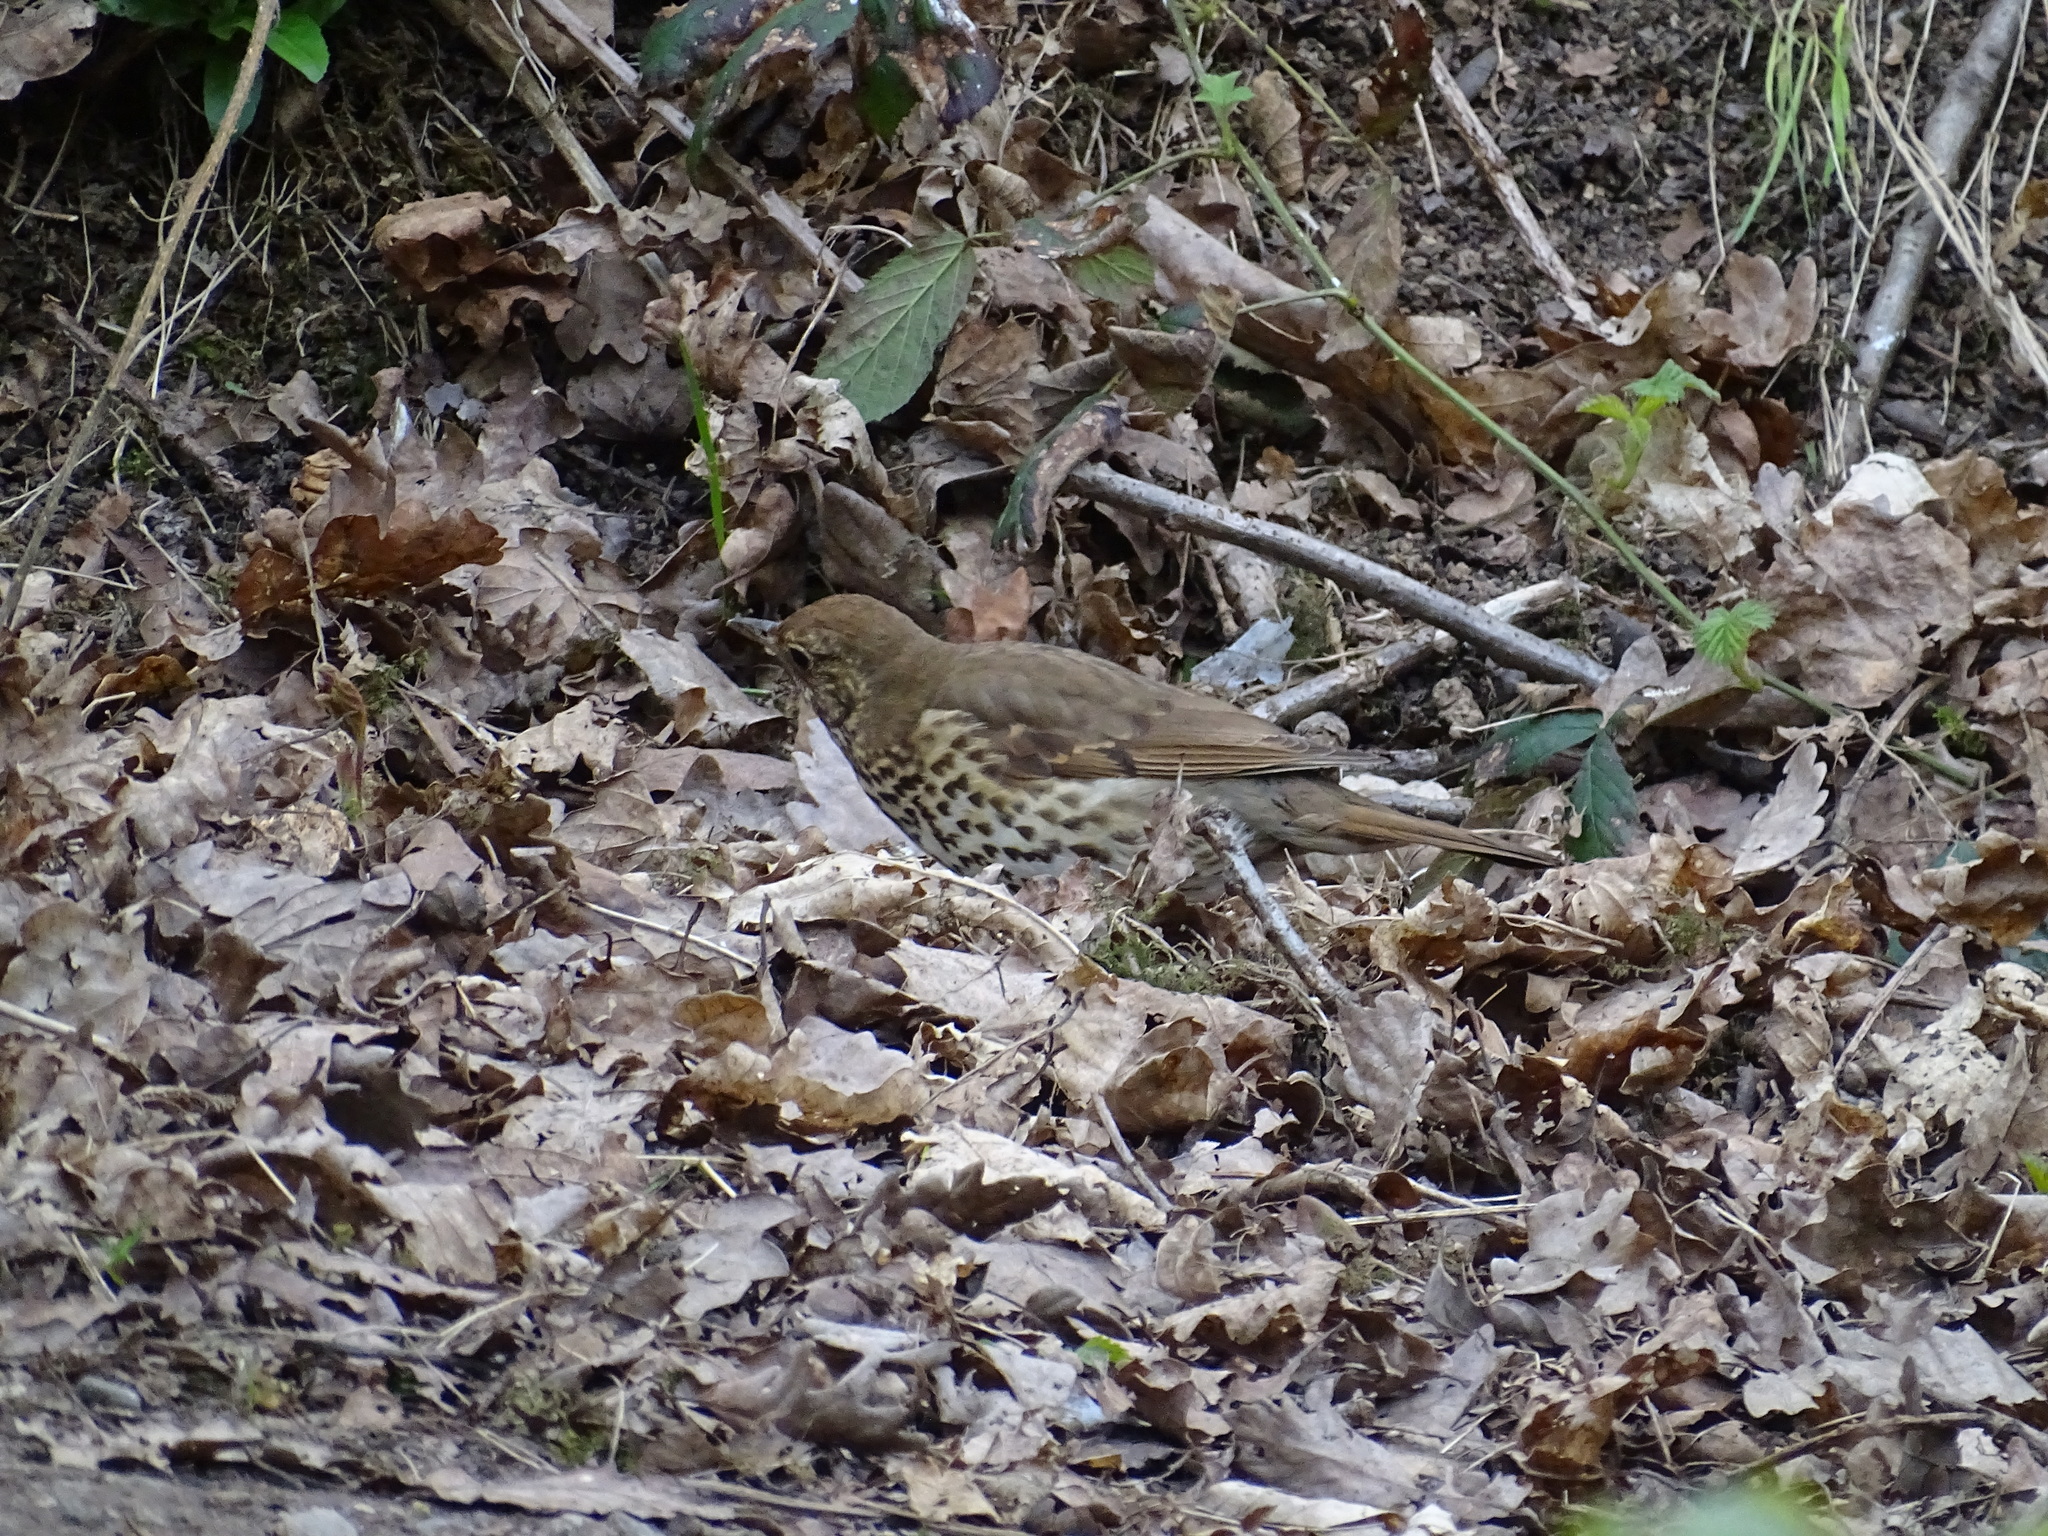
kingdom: Animalia
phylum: Chordata
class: Aves
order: Passeriformes
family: Turdidae
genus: Turdus
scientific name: Turdus philomelos
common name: Song thrush
